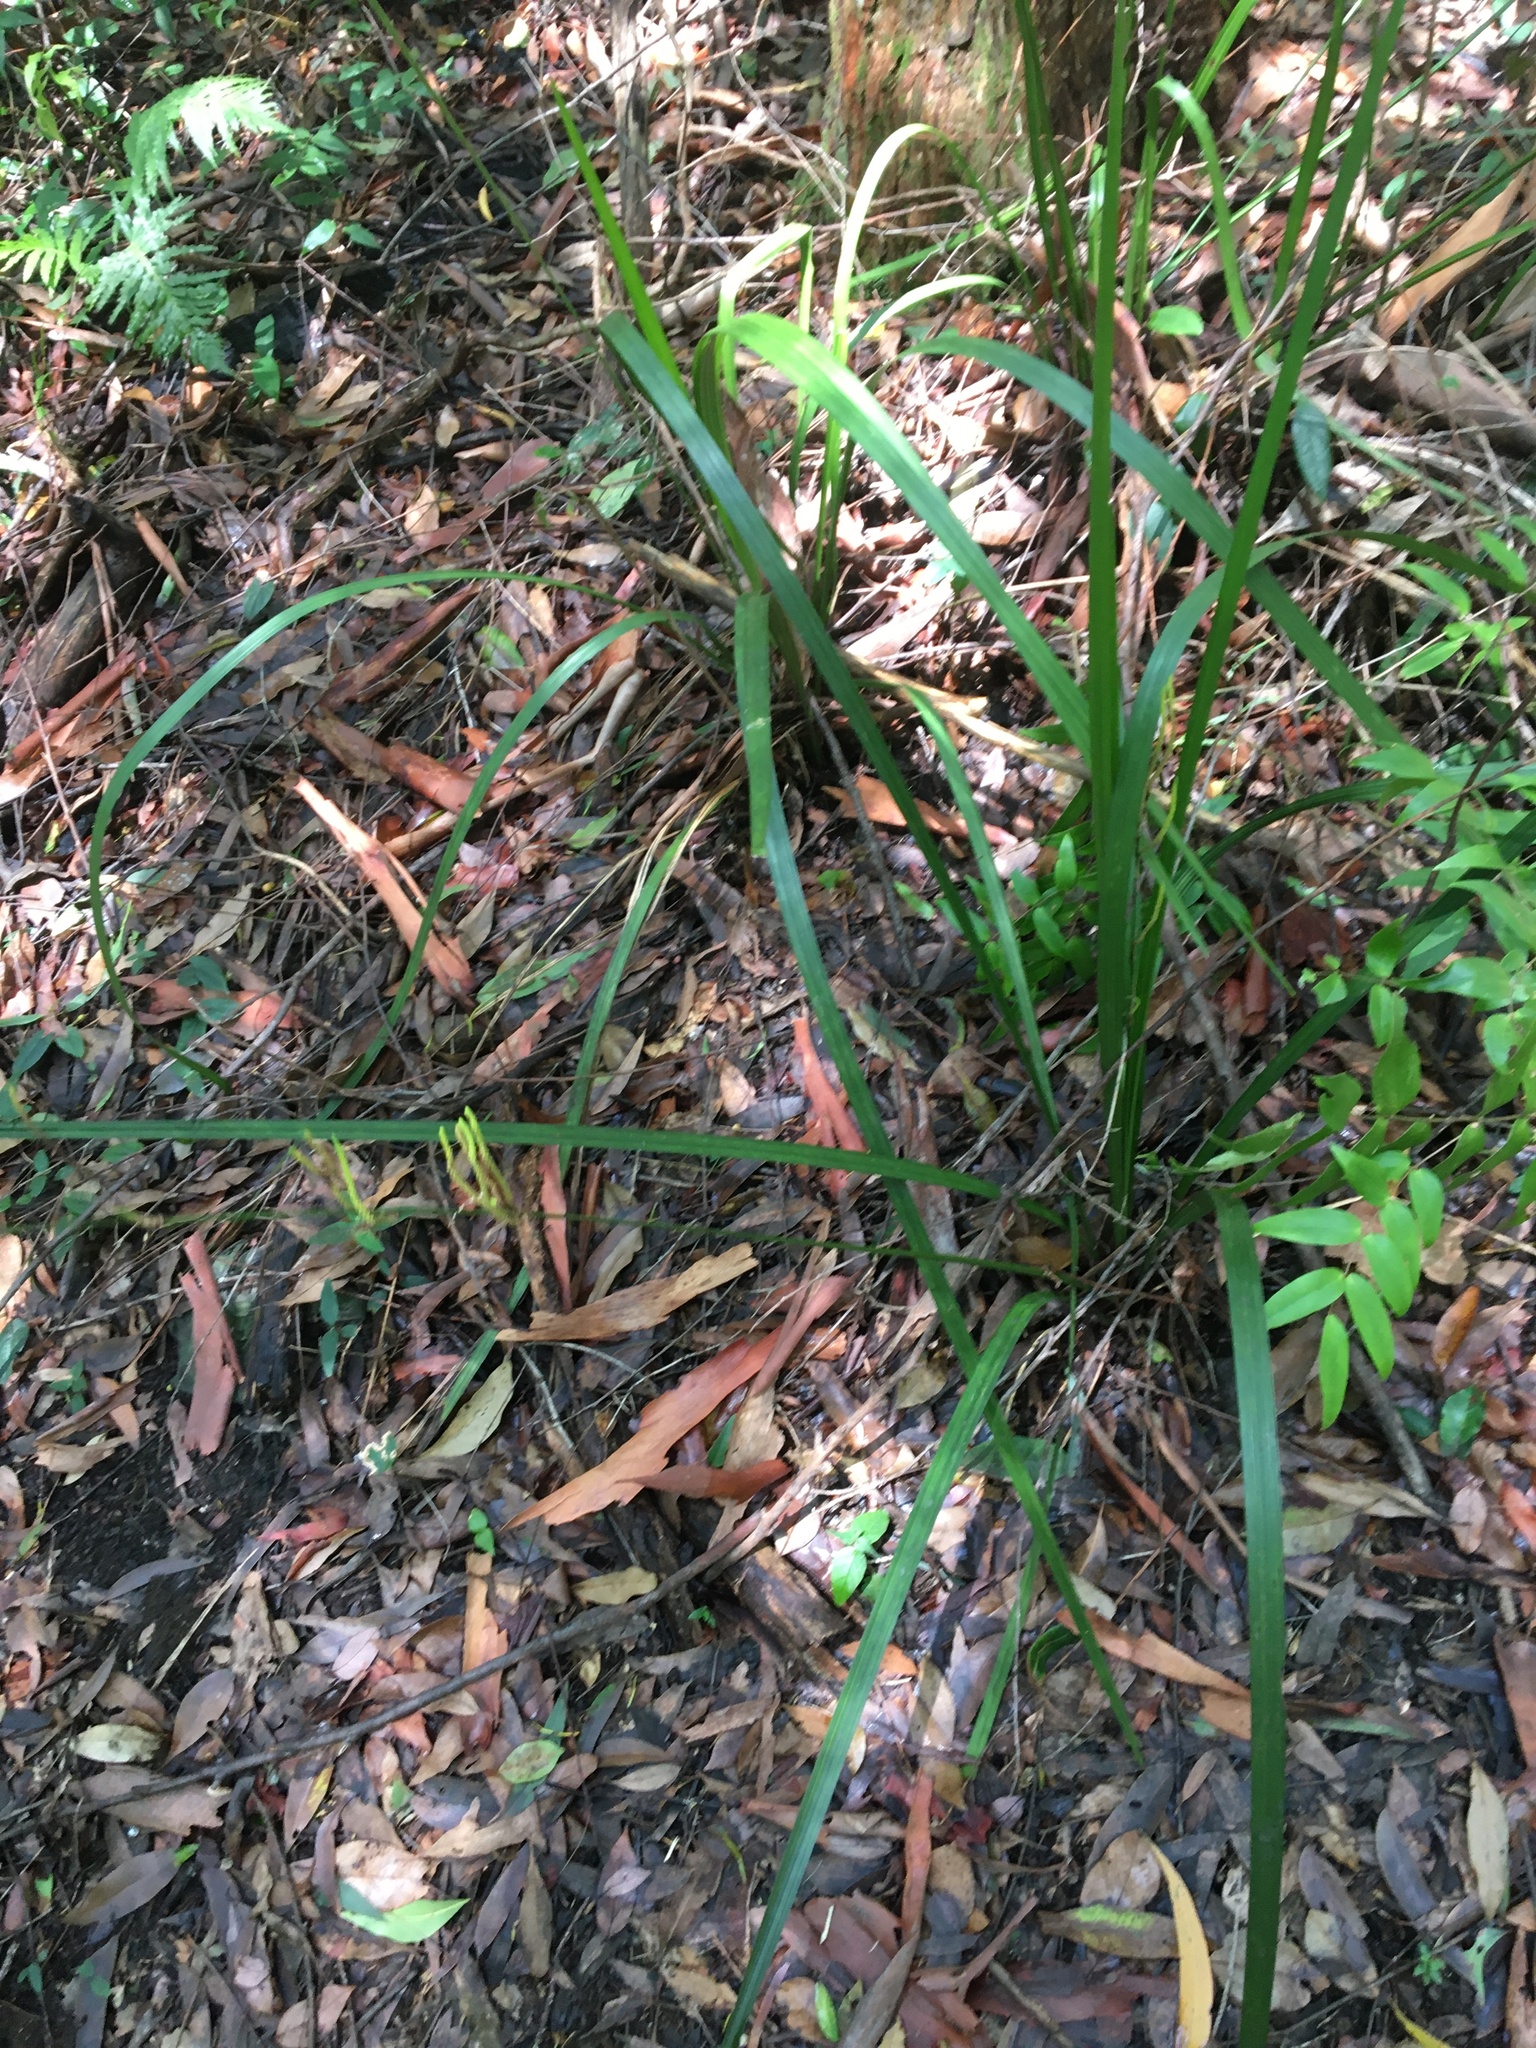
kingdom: Plantae
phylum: Tracheophyta
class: Liliopsida
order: Alismatales
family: Araceae
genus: Gymnostachys
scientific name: Gymnostachys anceps
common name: Settler's-flax
